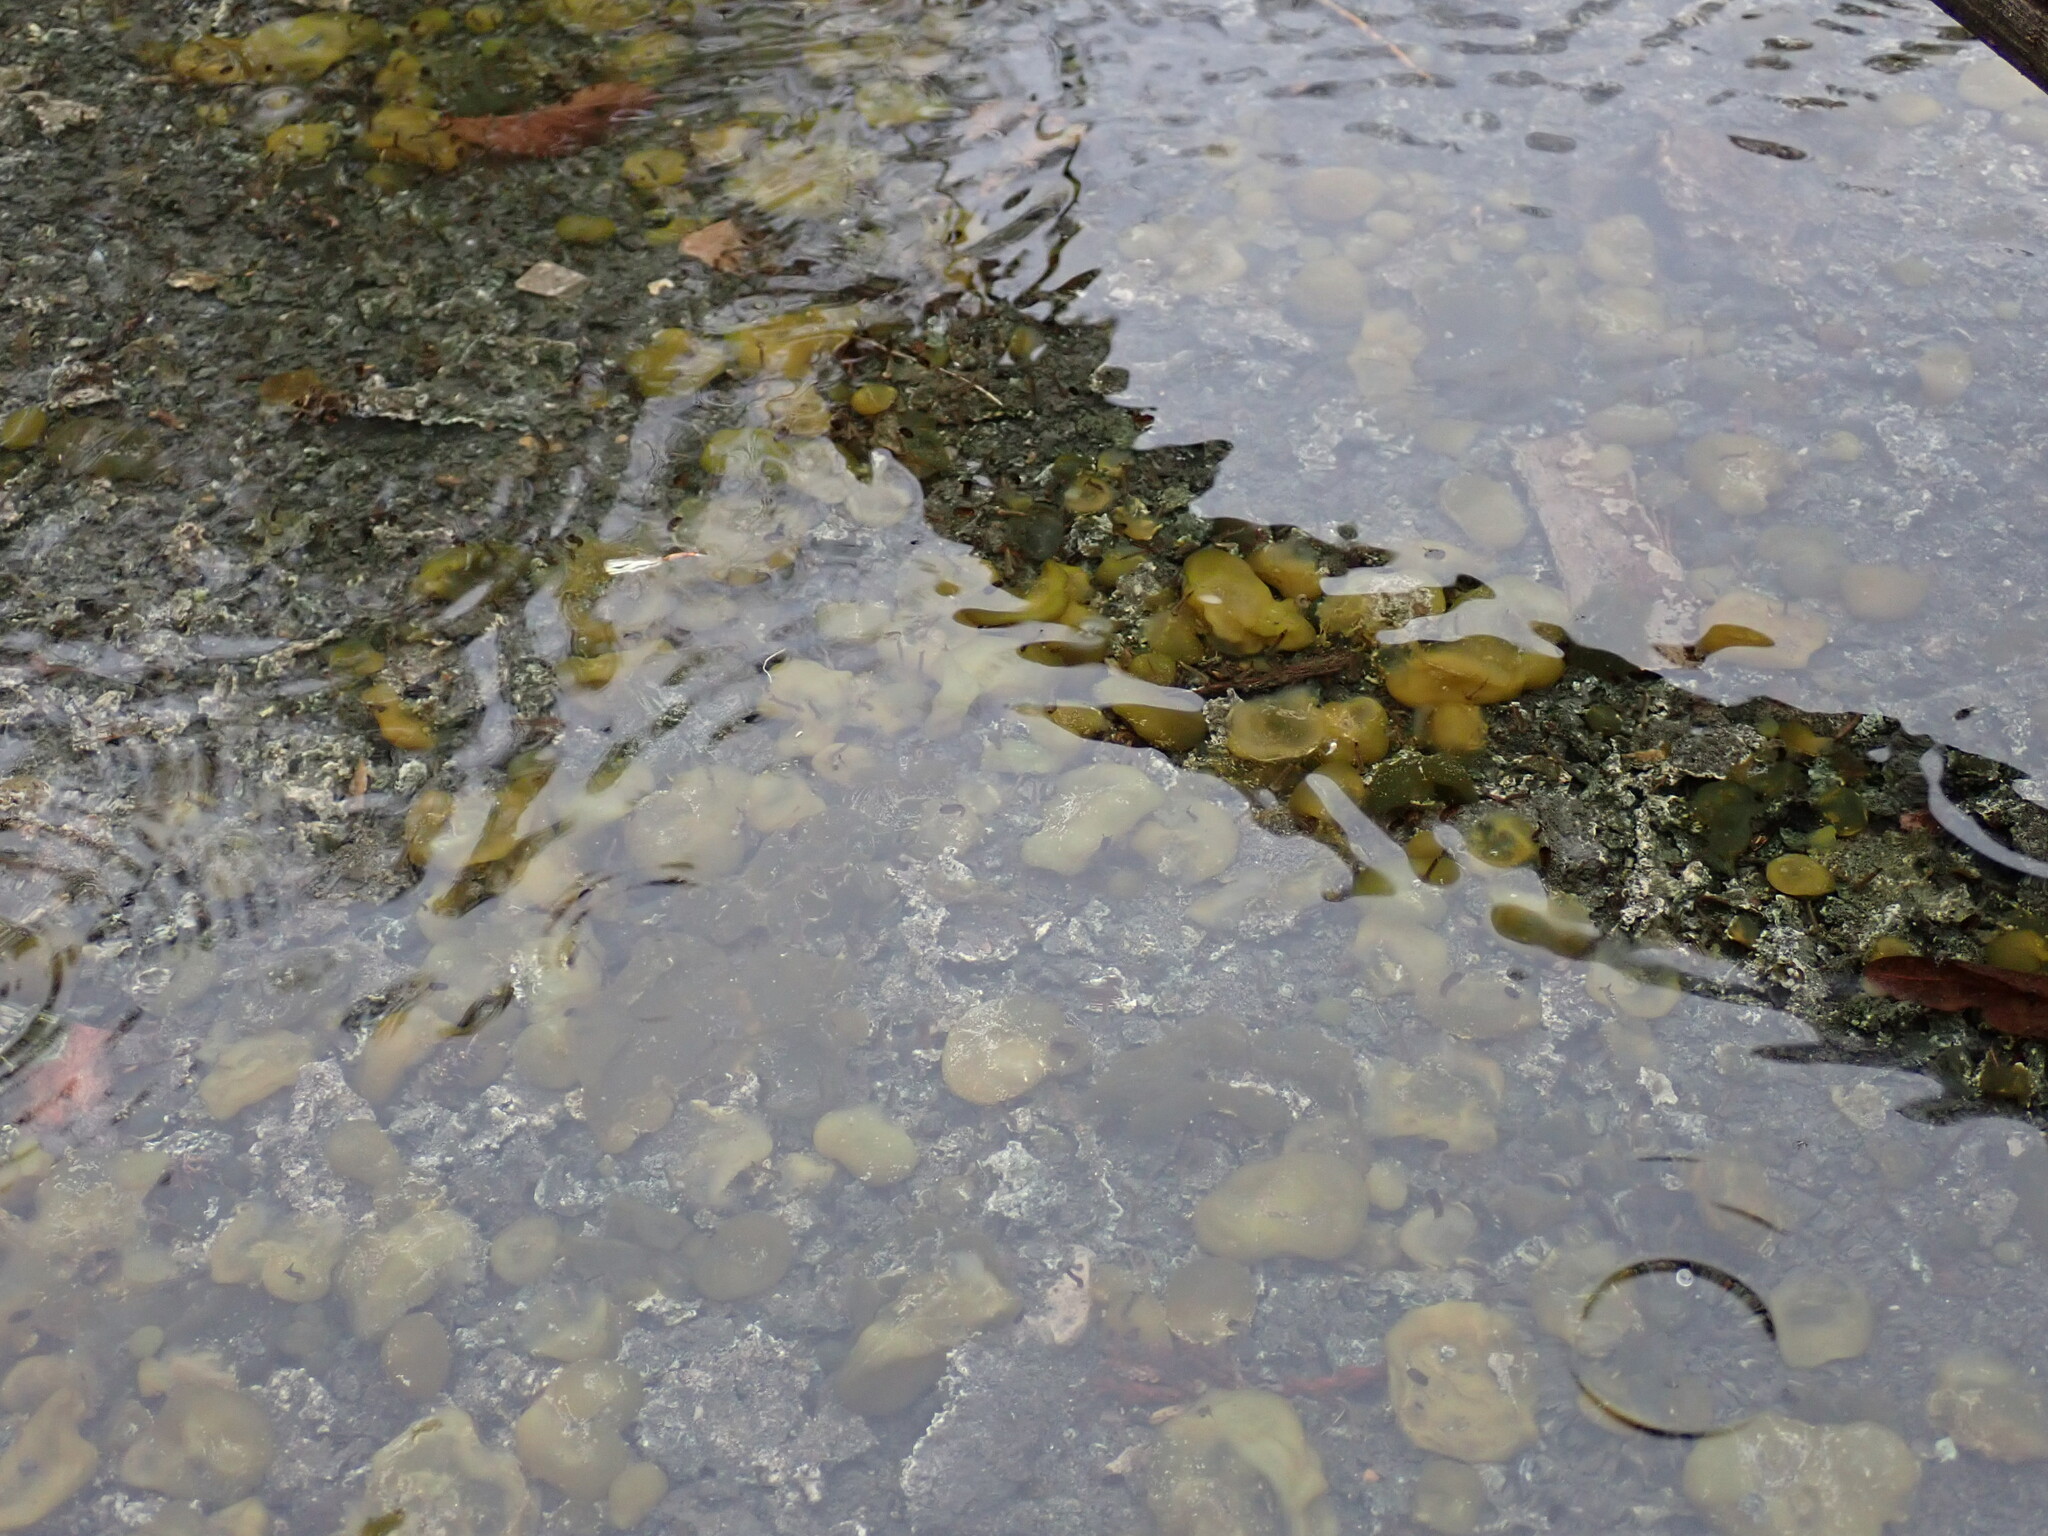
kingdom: Bacteria
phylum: Cyanobacteria
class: Cyanobacteriia
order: Cyanobacteriales
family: Nostocaceae
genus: Nostoc
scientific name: Nostoc commune
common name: Star jelly
